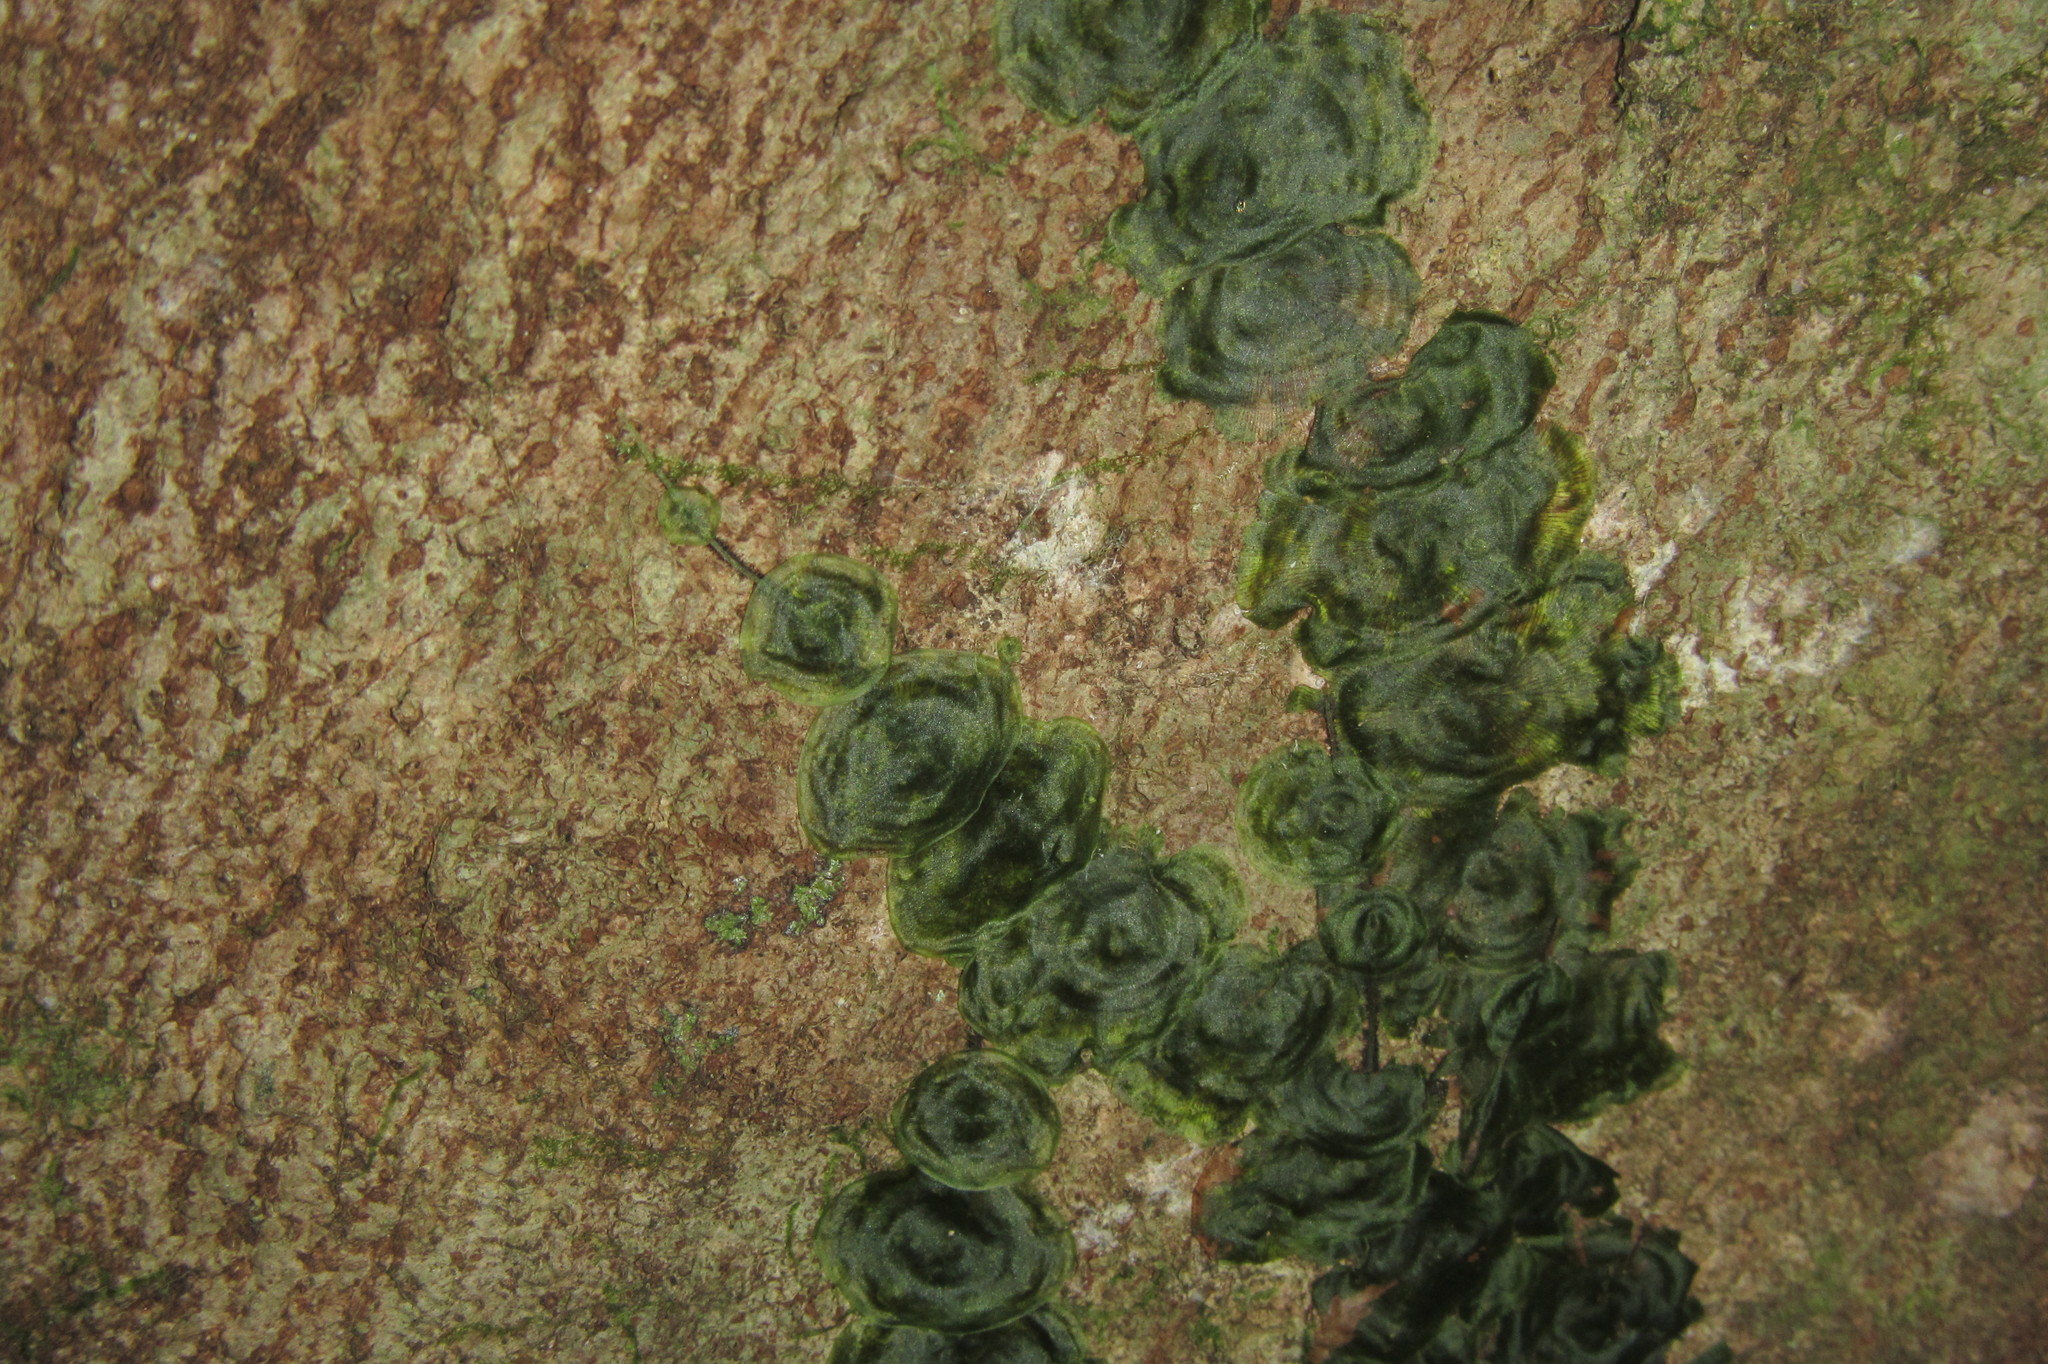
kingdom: Plantae
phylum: Tracheophyta
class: Polypodiopsida
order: Hymenophyllales
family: Hymenophyllaceae
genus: Didymoglossum
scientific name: Didymoglossum tahitense
